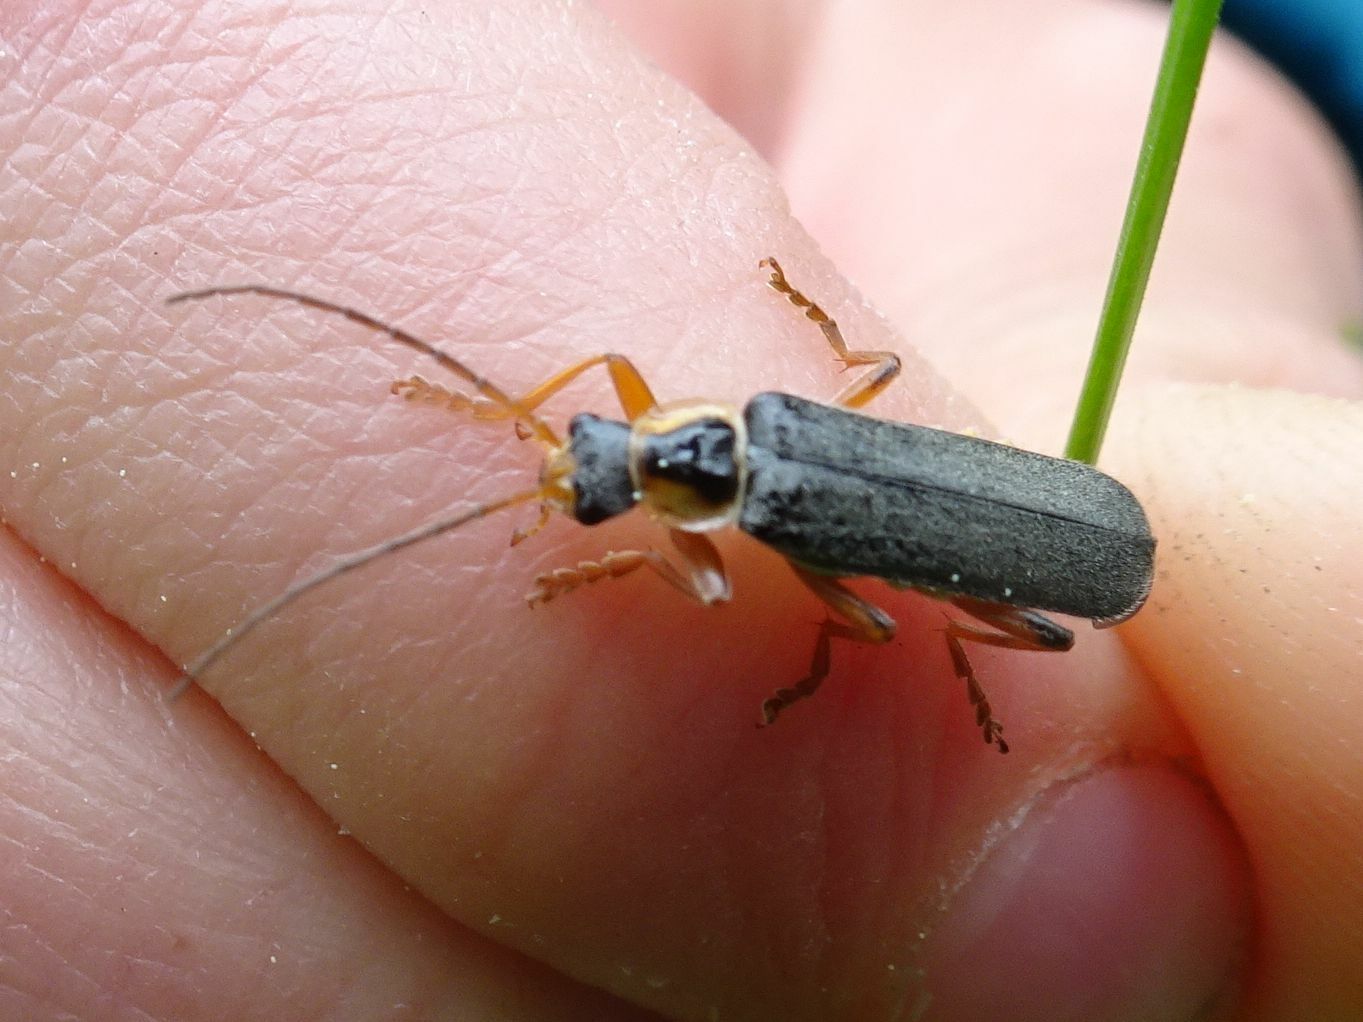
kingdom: Animalia
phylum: Arthropoda
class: Insecta
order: Coleoptera
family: Cantharidae
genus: Cantharis
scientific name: Cantharis nigricans
